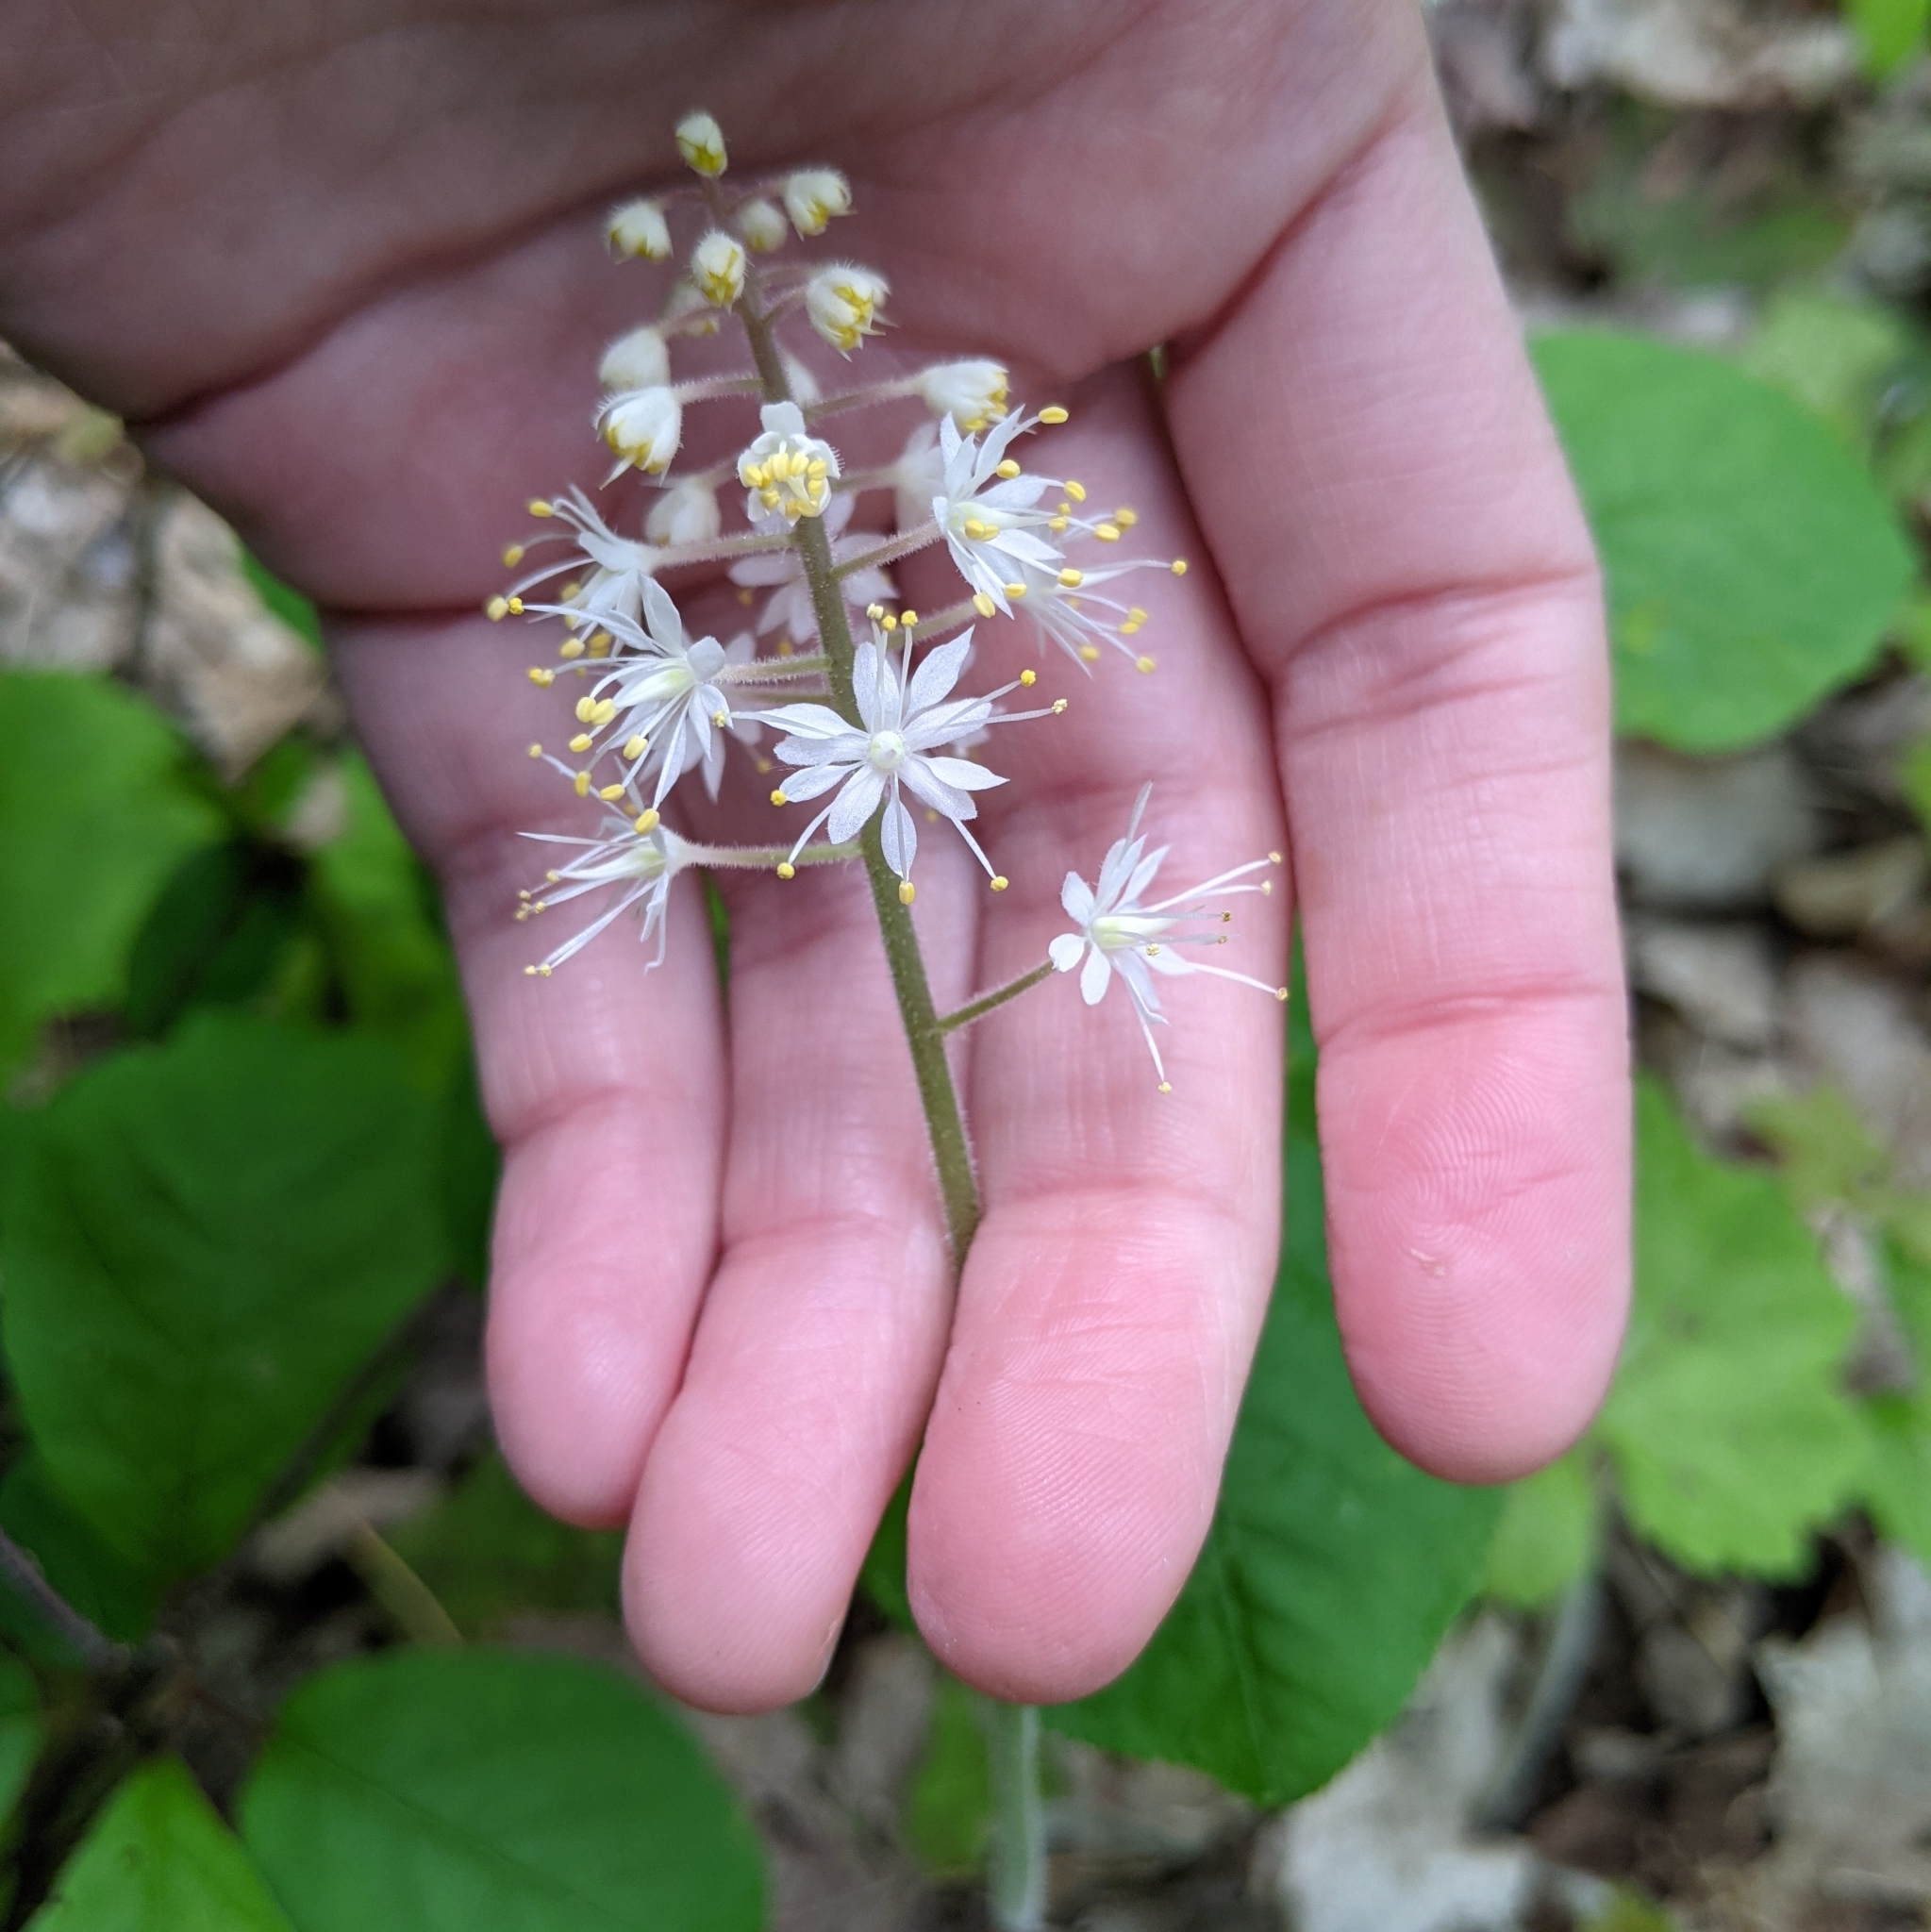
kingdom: Plantae
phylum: Tracheophyta
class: Magnoliopsida
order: Saxifragales
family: Saxifragaceae
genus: Tiarella
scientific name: Tiarella stolonifera
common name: Stoloniferous foamflower
